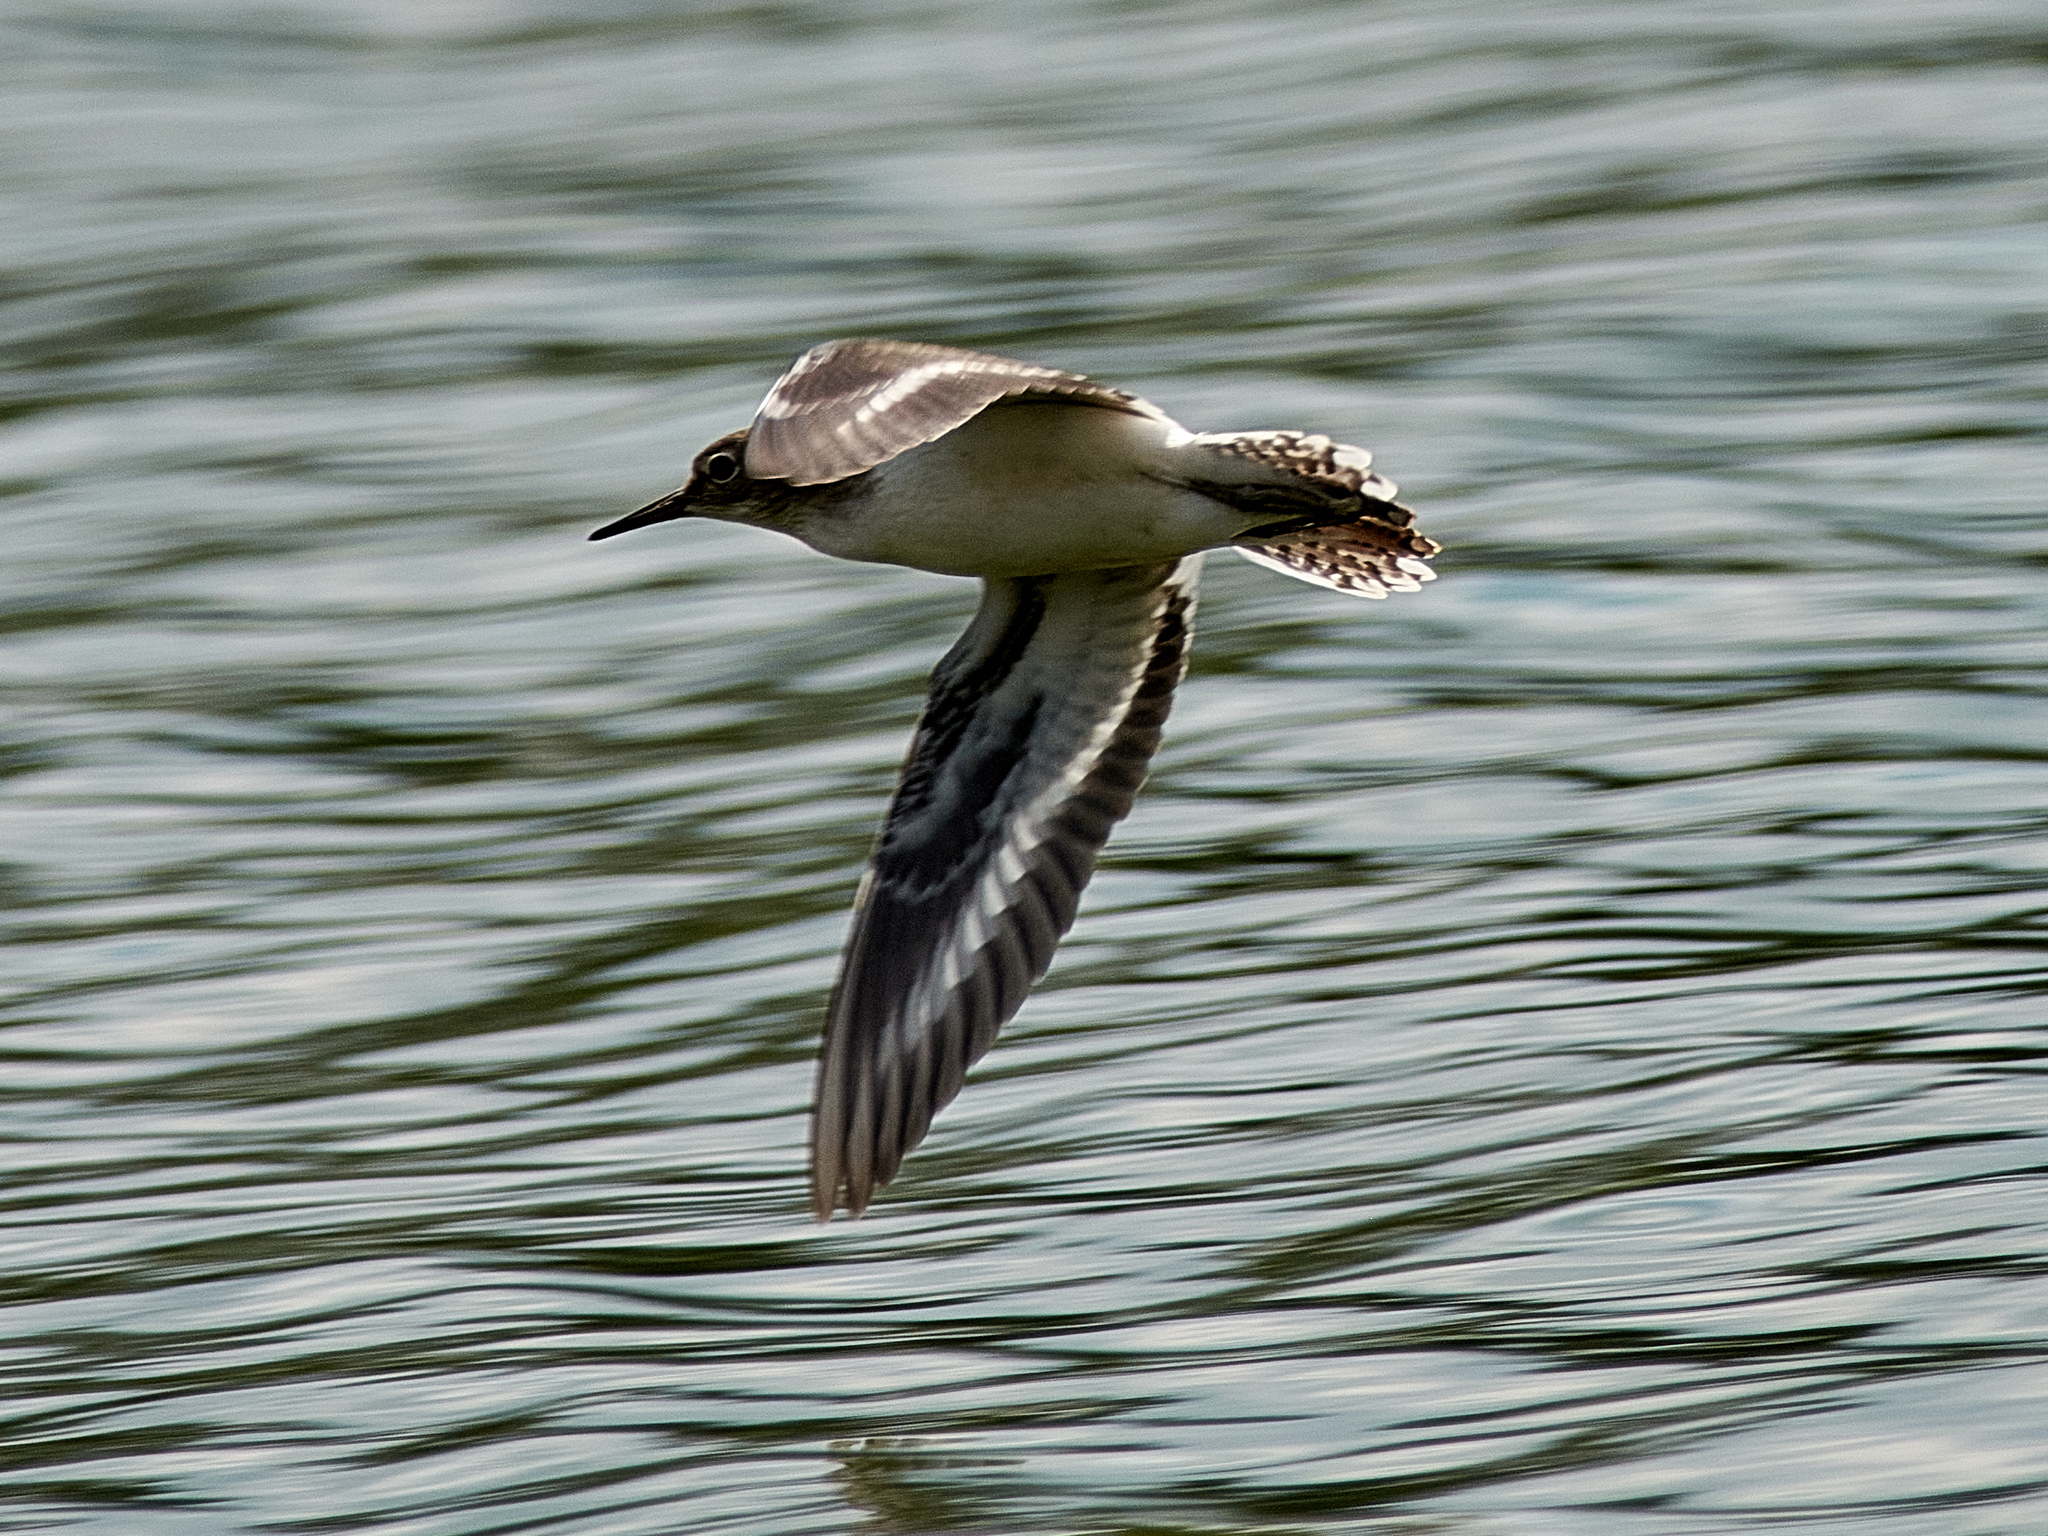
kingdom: Animalia
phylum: Chordata
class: Aves
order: Charadriiformes
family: Scolopacidae
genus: Actitis
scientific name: Actitis hypoleucos
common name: Common sandpiper
